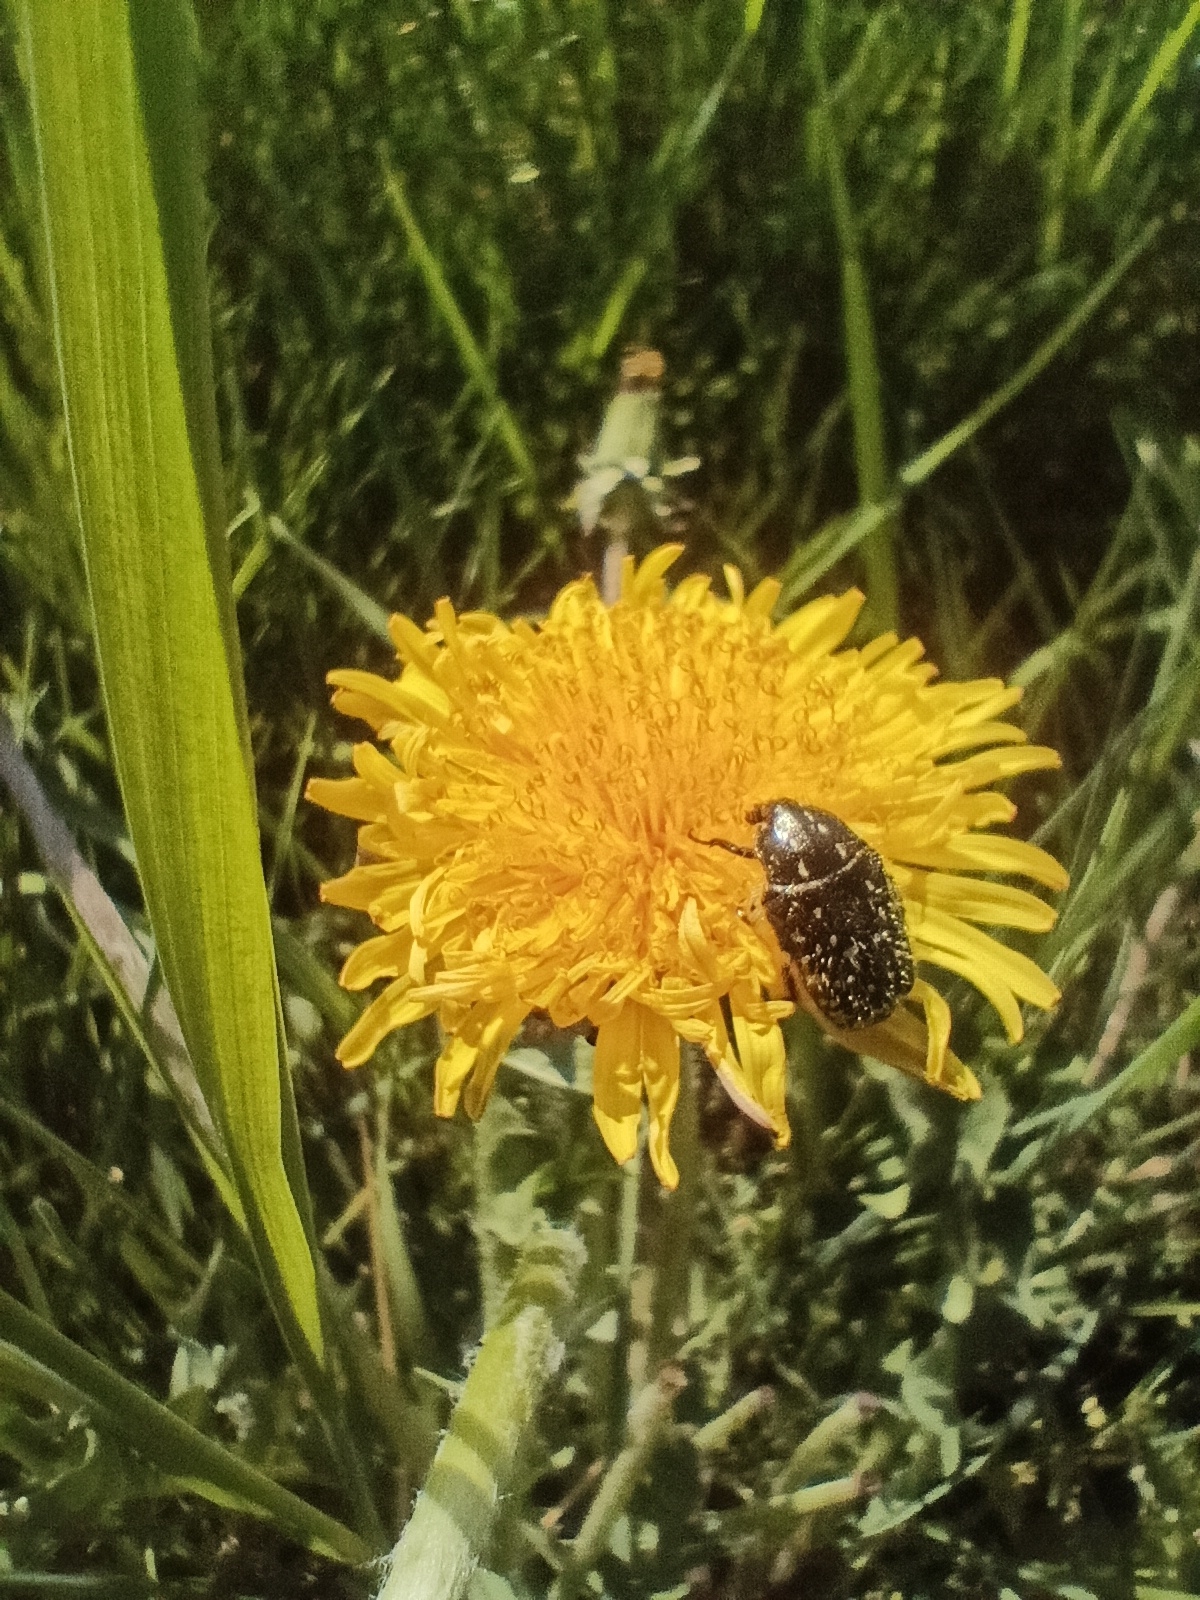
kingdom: Animalia
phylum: Arthropoda
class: Insecta
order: Coleoptera
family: Scarabaeidae
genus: Oxythyrea
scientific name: Oxythyrea funesta
